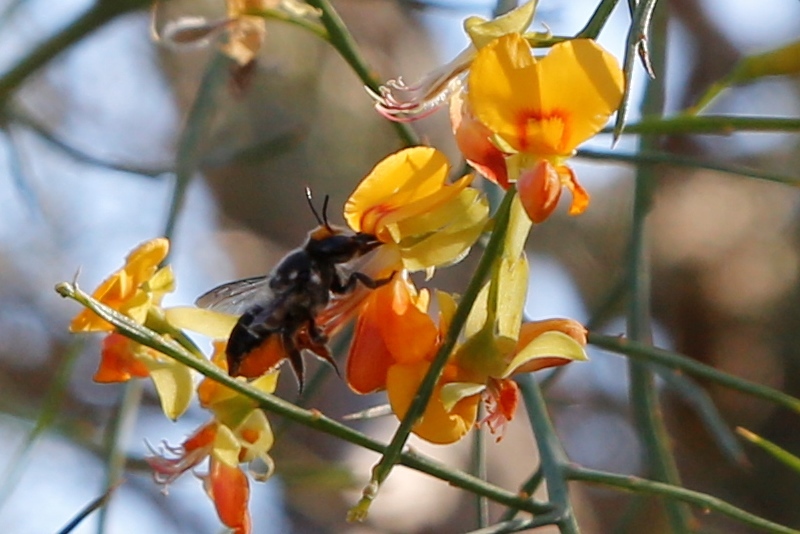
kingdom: Animalia
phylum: Arthropoda
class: Insecta
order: Hymenoptera
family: Megachilidae
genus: Megachile
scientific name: Megachile chrysopyga
